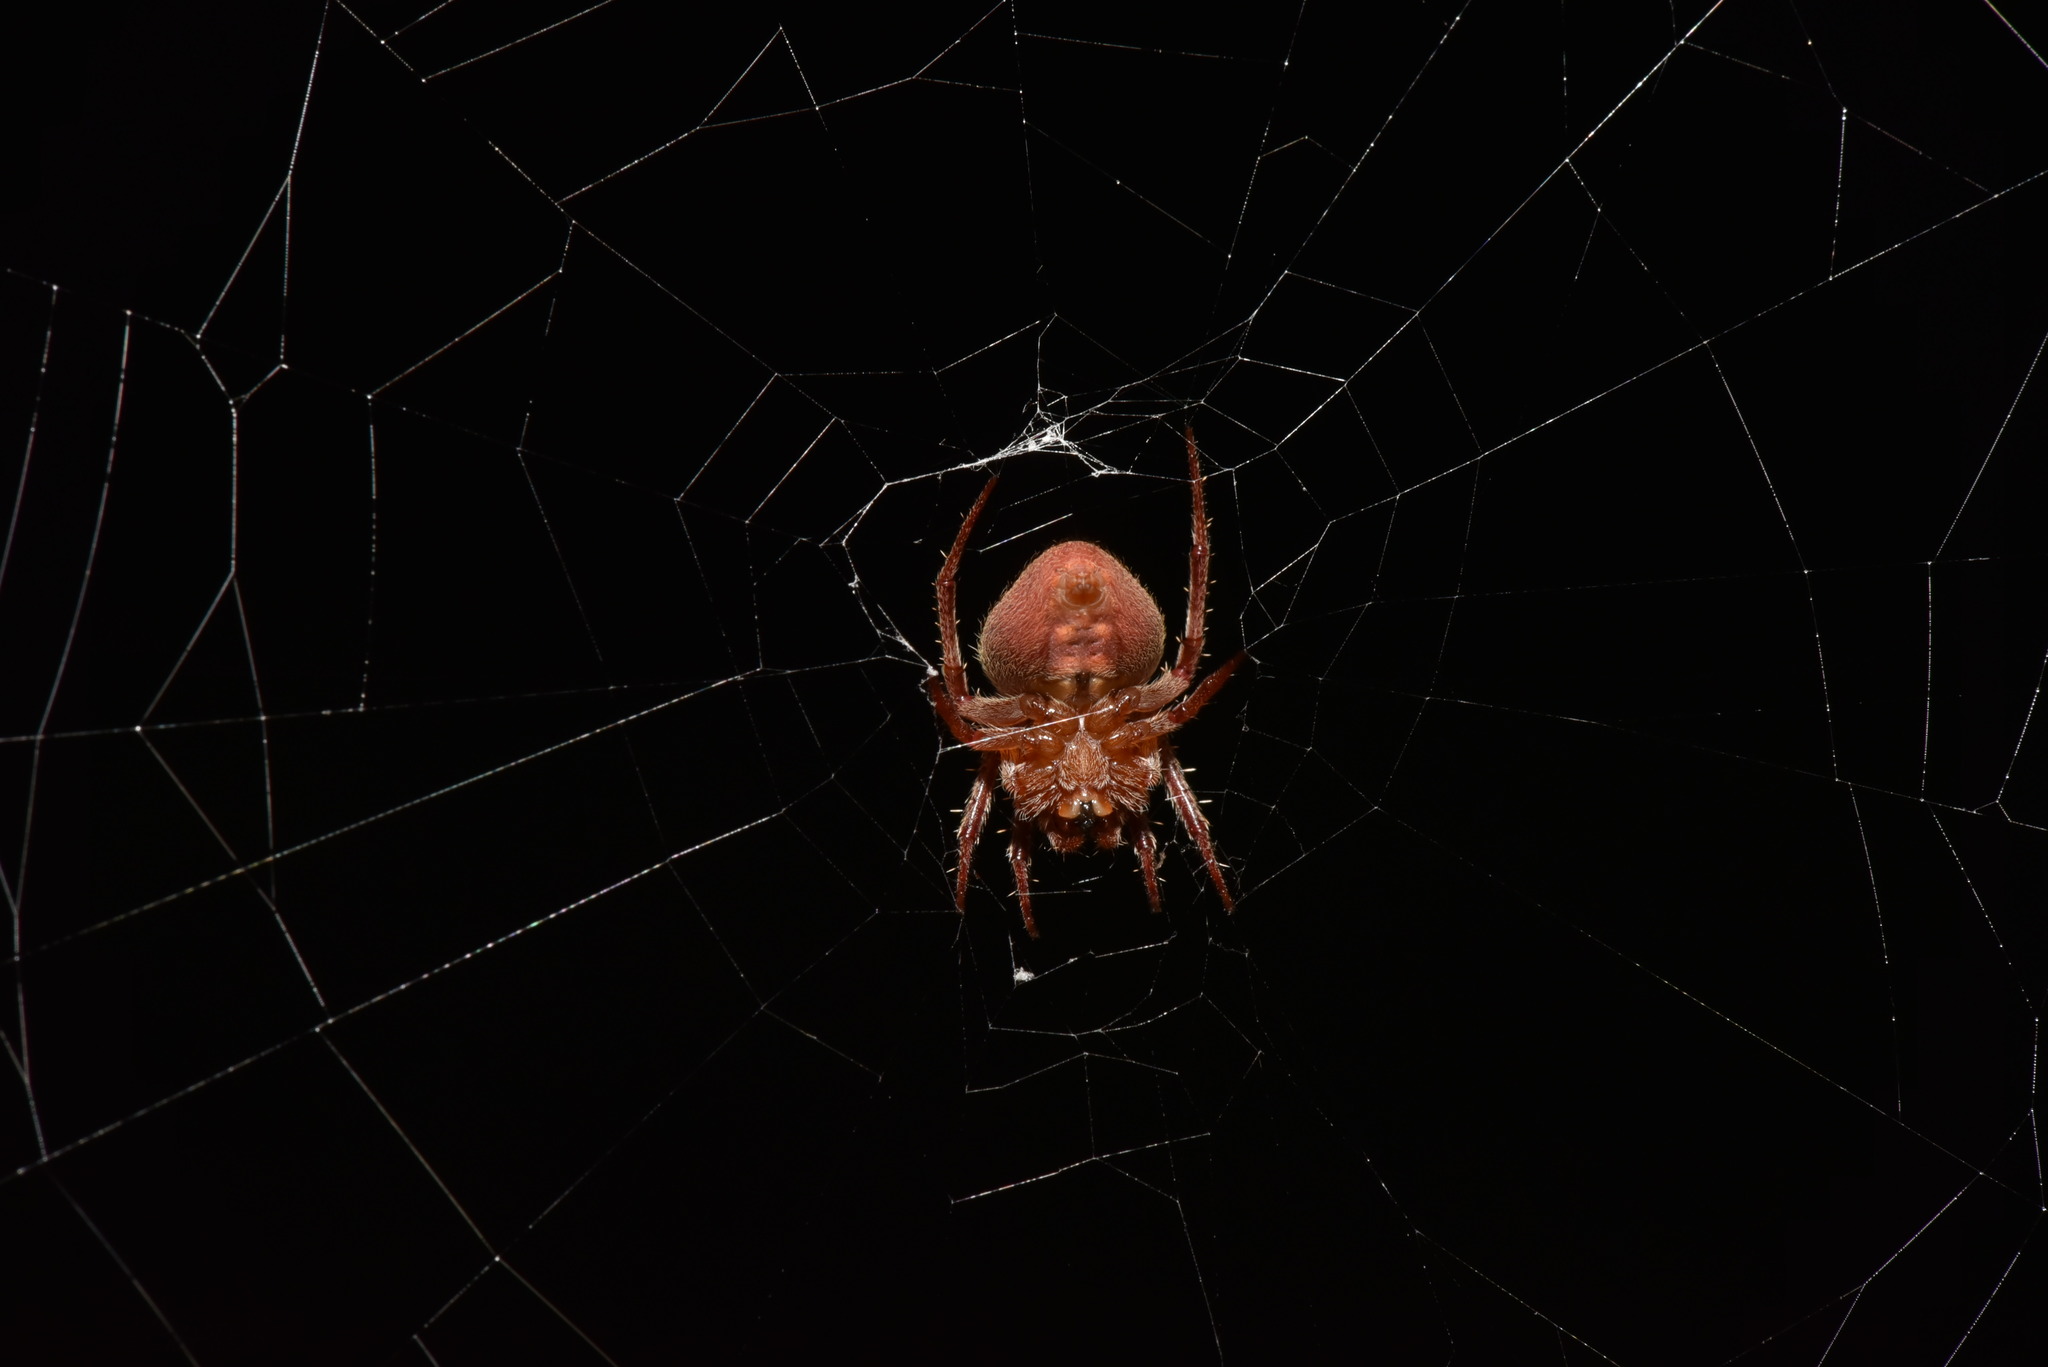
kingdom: Animalia
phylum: Arthropoda
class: Arachnida
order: Araneae
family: Araneidae
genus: Neoscona
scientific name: Neoscona punctigera
